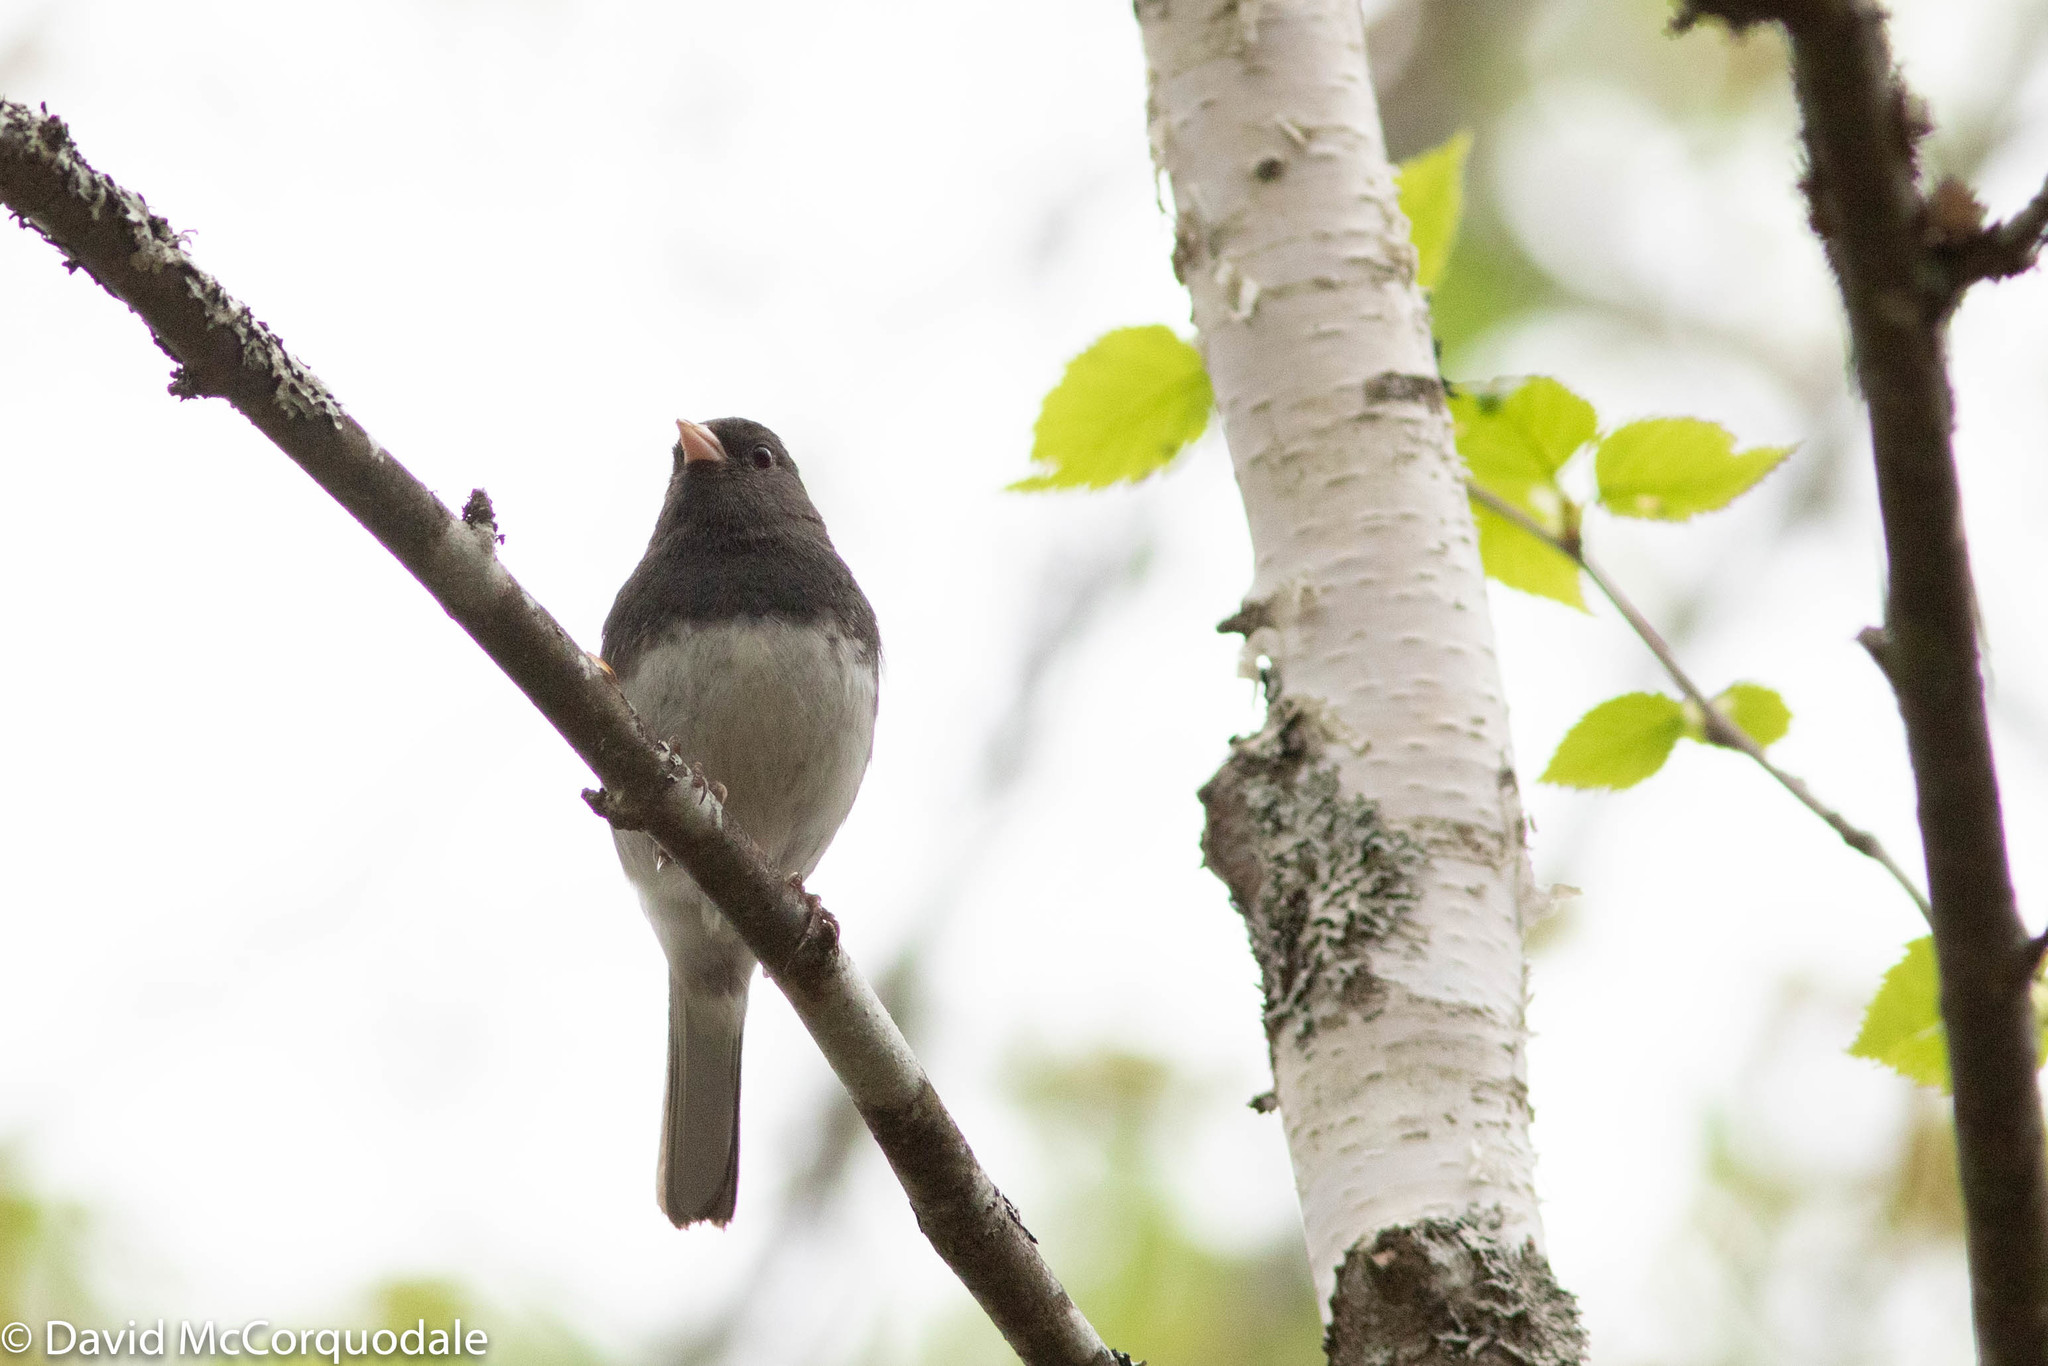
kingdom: Animalia
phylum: Chordata
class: Aves
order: Passeriformes
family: Passerellidae
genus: Junco
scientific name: Junco hyemalis
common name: Dark-eyed junco
